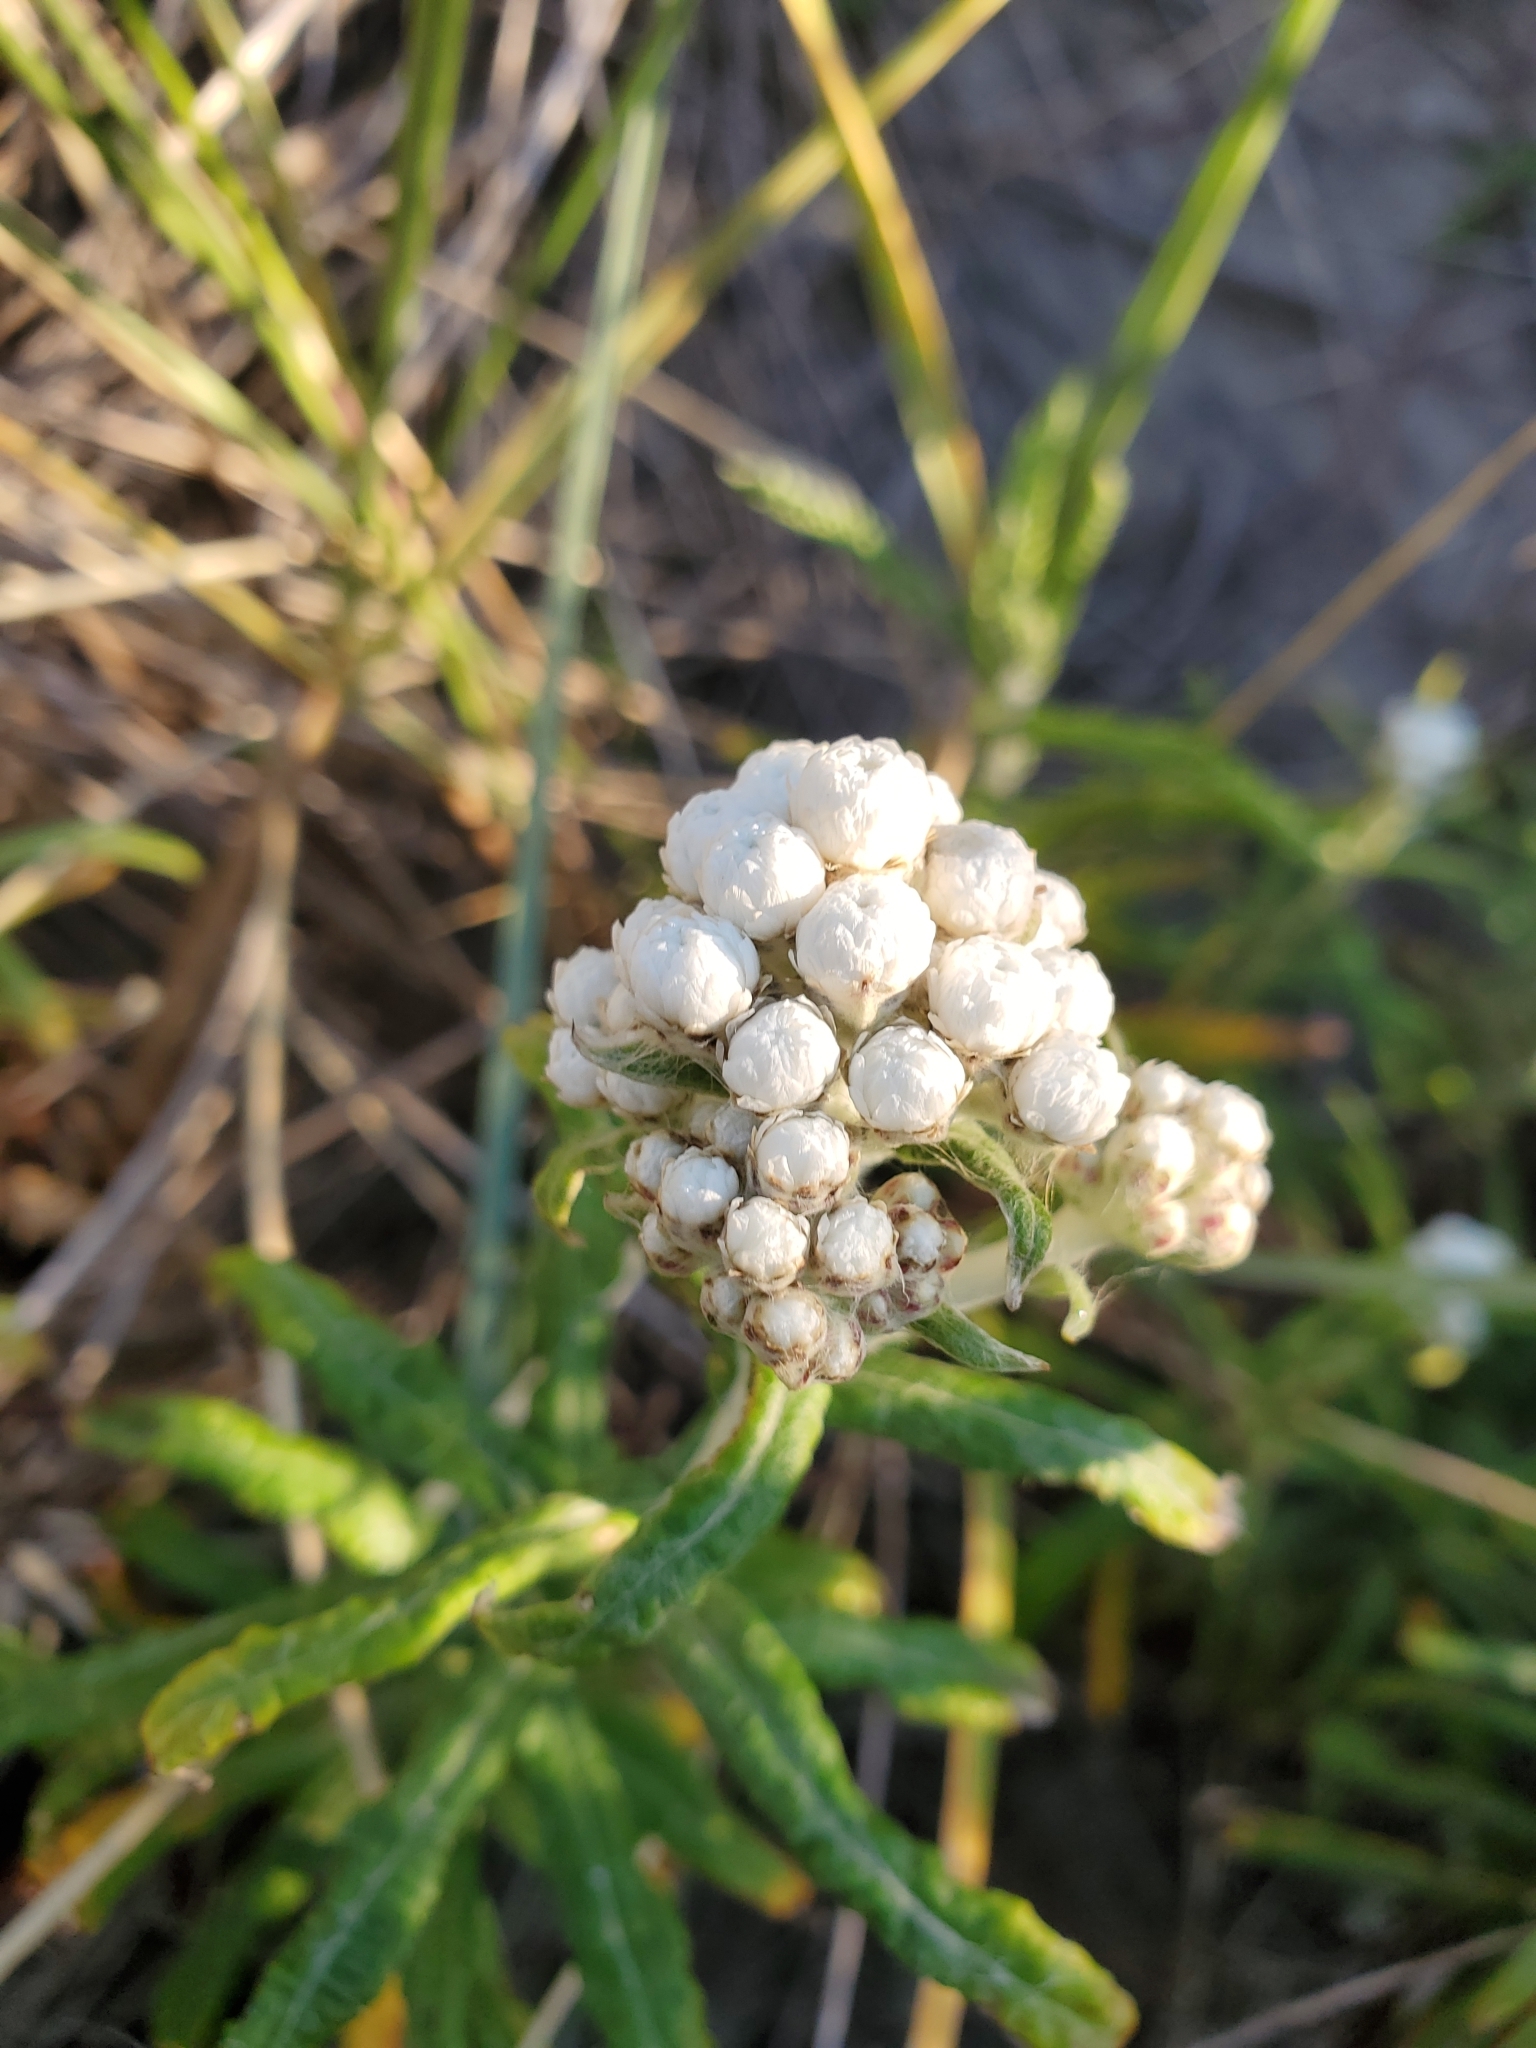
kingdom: Plantae
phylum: Tracheophyta
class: Magnoliopsida
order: Asterales
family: Asteraceae
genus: Anaphalis
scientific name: Anaphalis margaritacea
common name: Pearly everlasting
